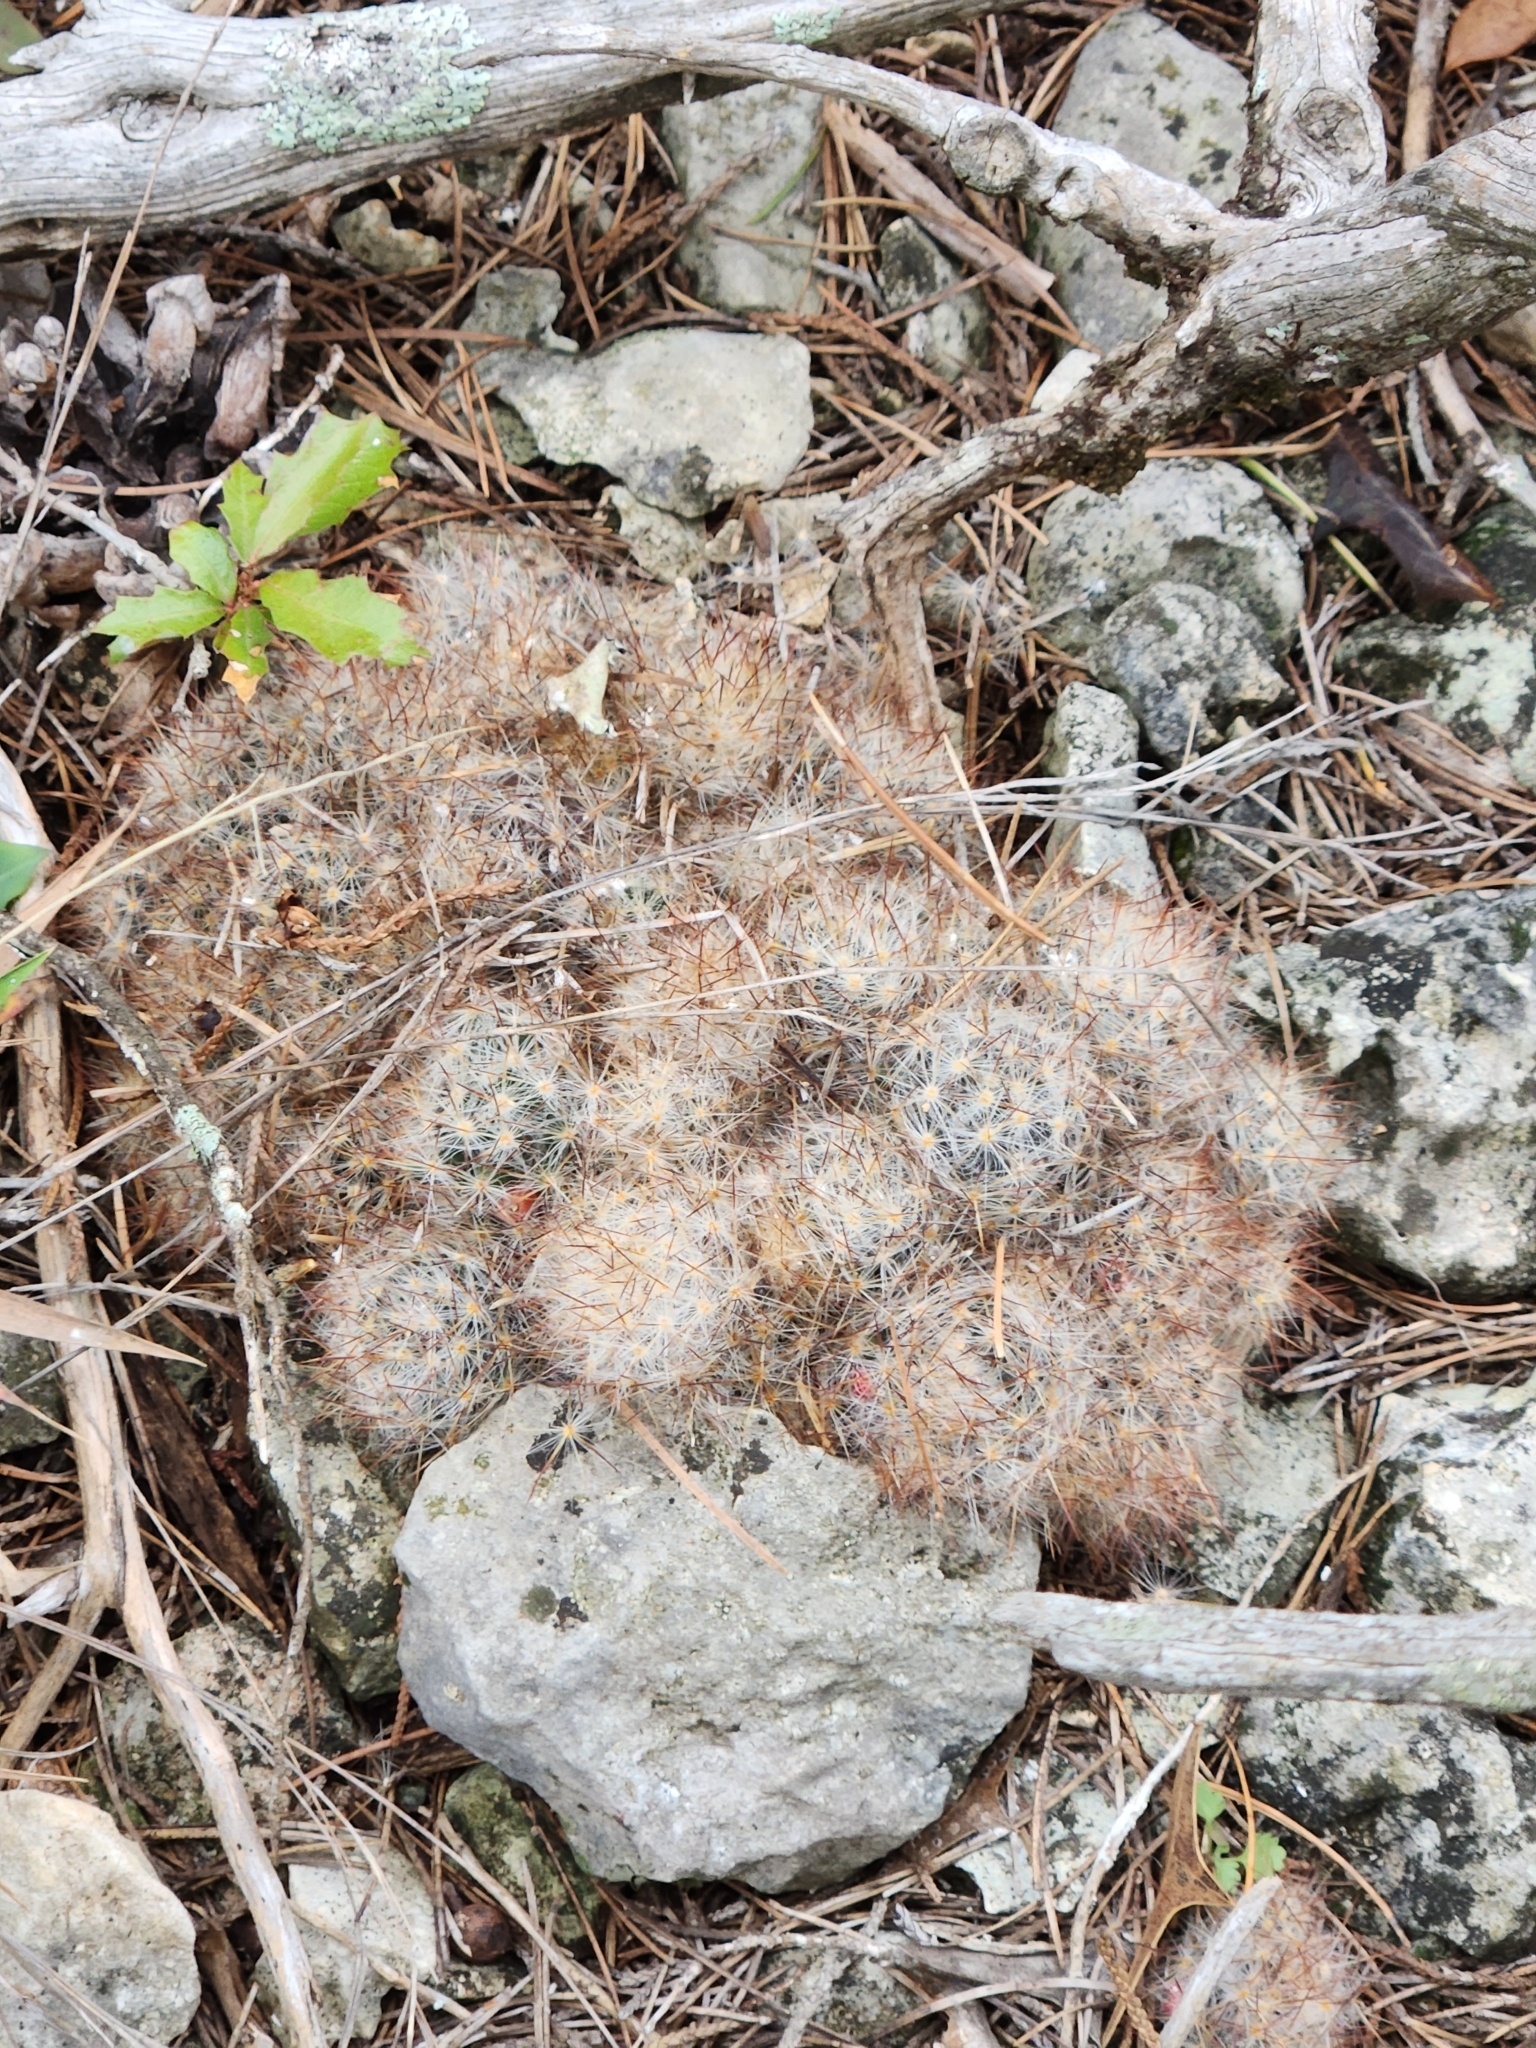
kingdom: Plantae
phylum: Tracheophyta
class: Magnoliopsida
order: Caryophyllales
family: Cactaceae
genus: Mammillaria
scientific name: Mammillaria prolifera
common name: Texas nipple cactus
